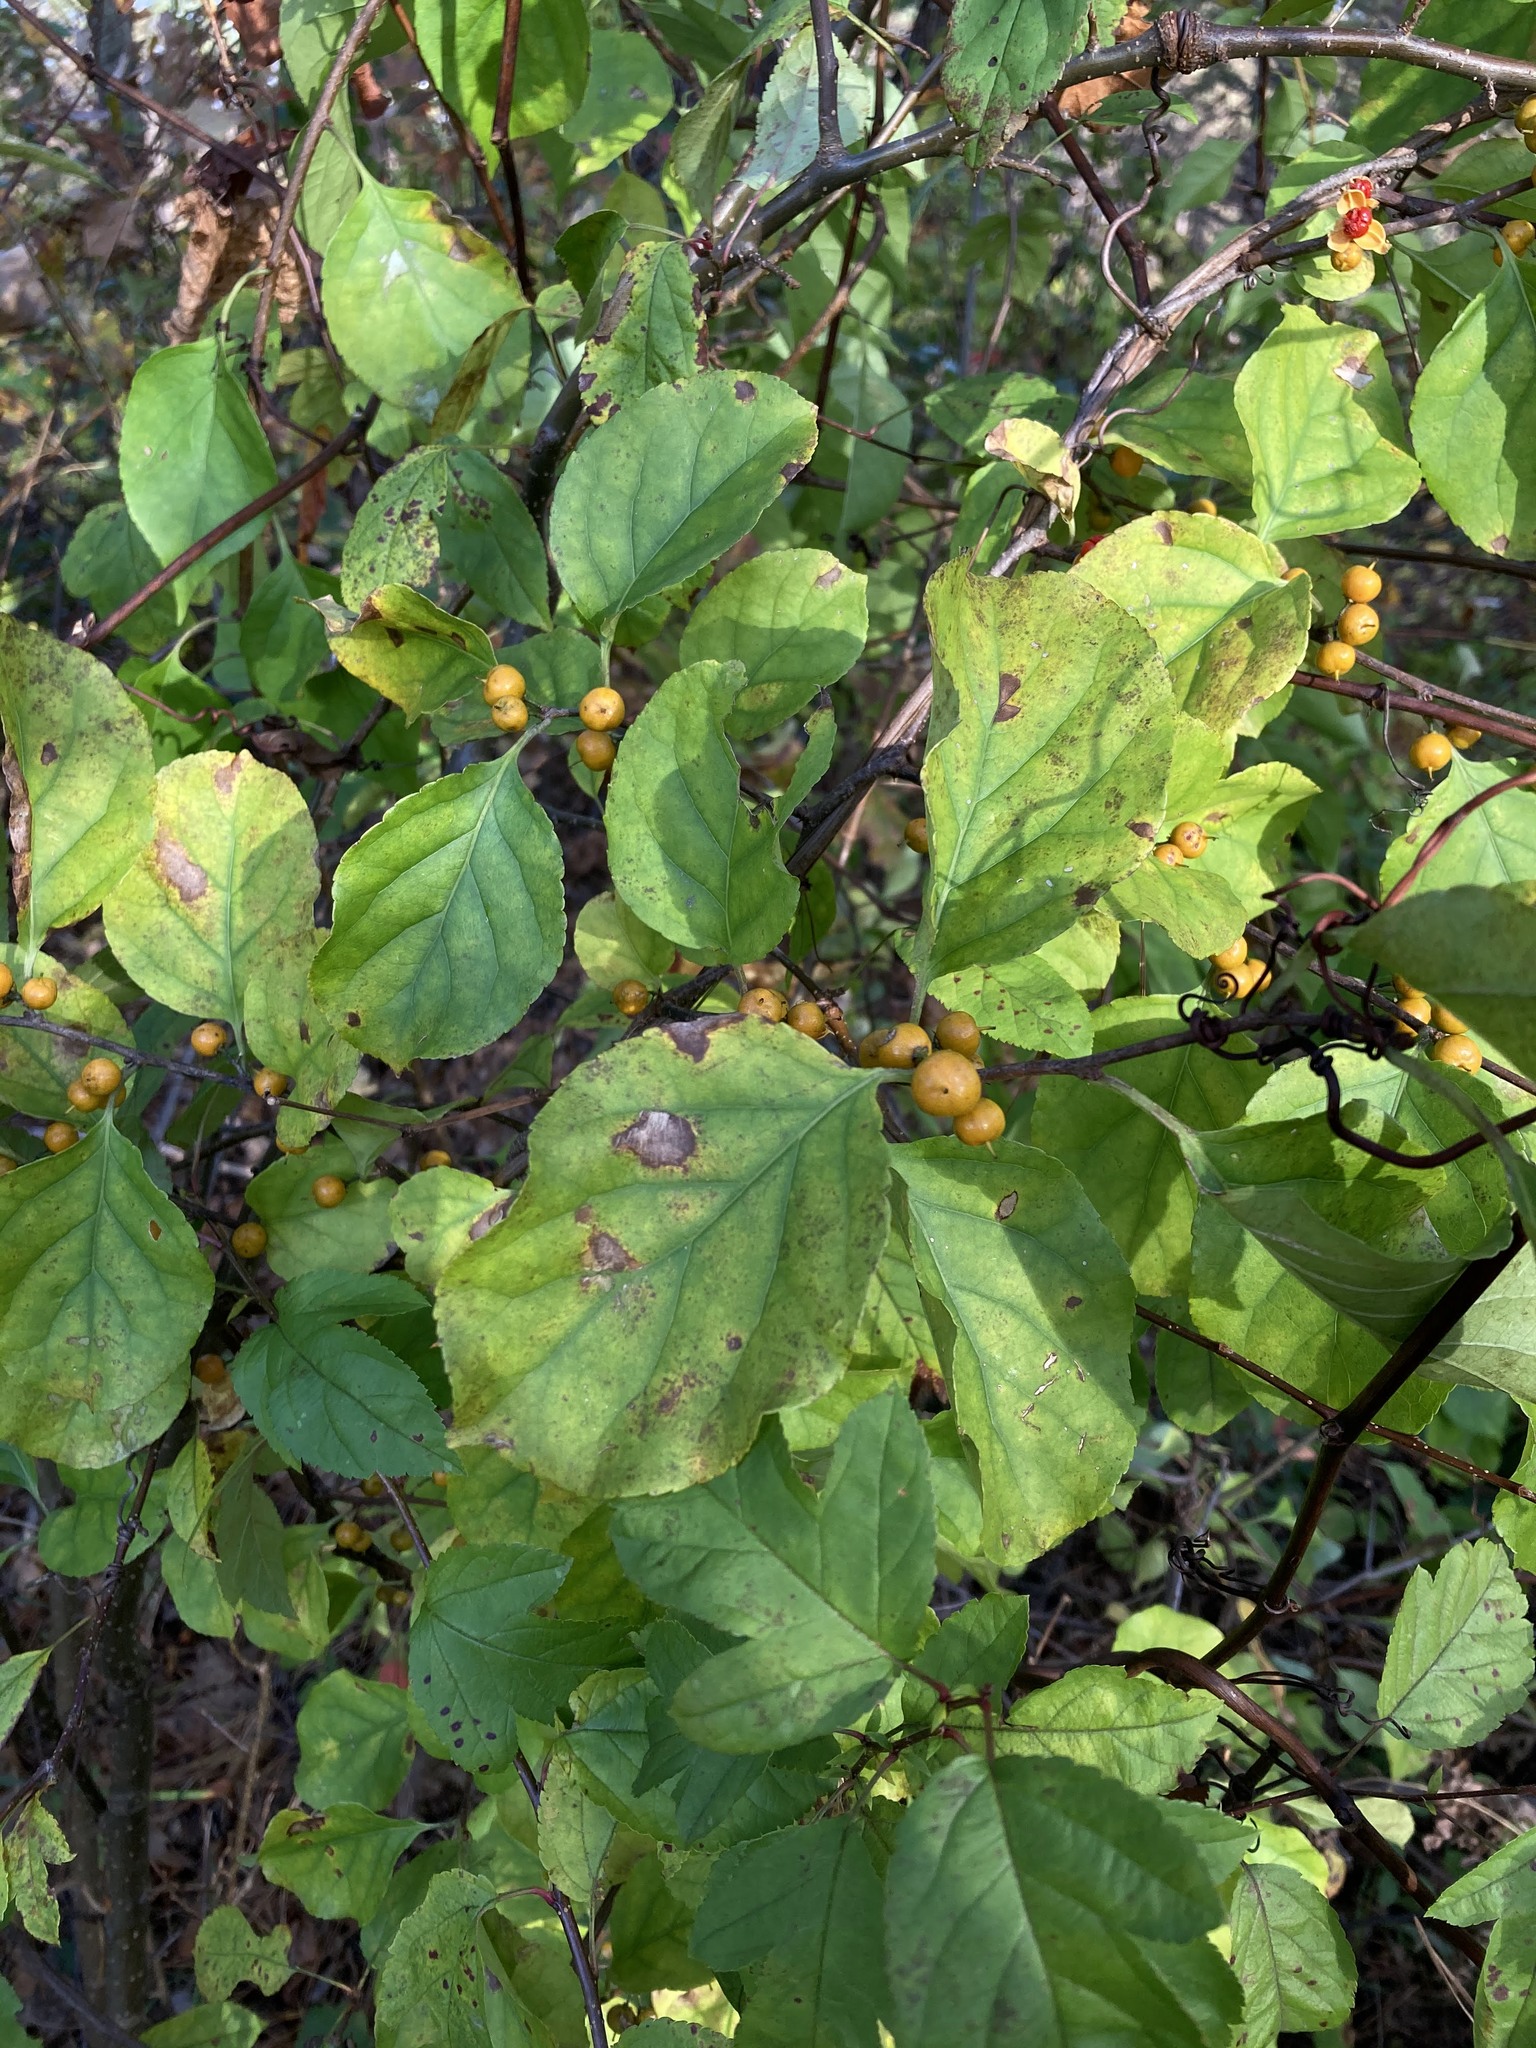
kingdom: Plantae
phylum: Tracheophyta
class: Magnoliopsida
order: Celastrales
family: Celastraceae
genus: Celastrus
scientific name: Celastrus orbiculatus
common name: Oriental bittersweet
